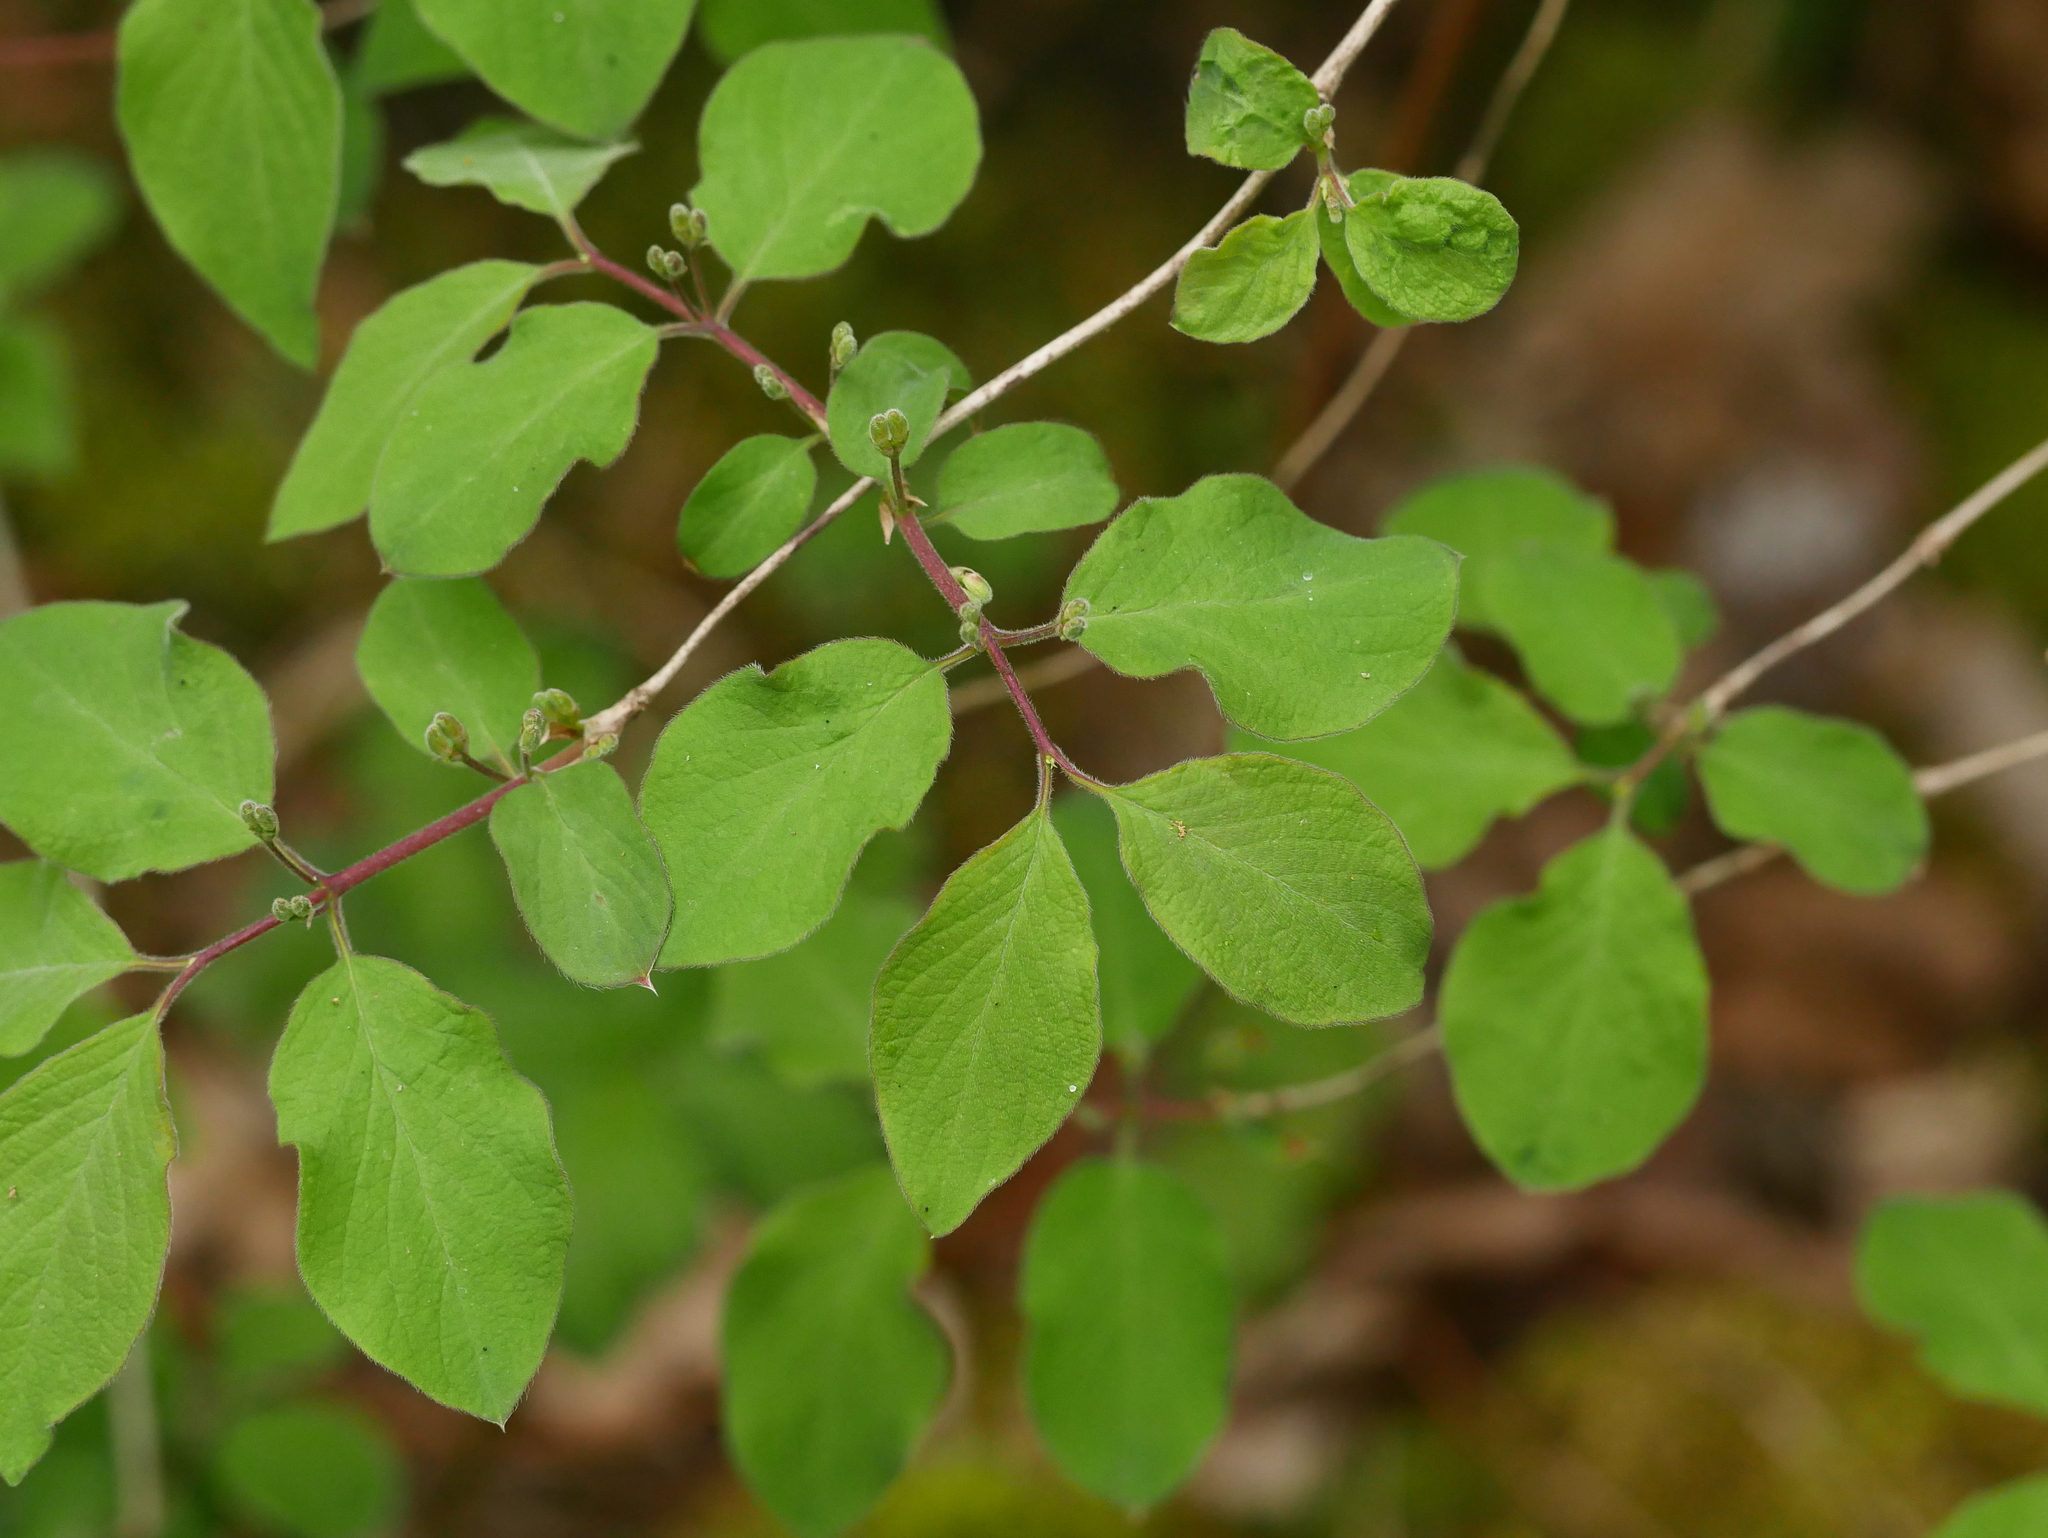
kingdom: Plantae
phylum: Tracheophyta
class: Magnoliopsida
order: Dipsacales
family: Caprifoliaceae
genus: Symphoricarpos
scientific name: Symphoricarpos albus
